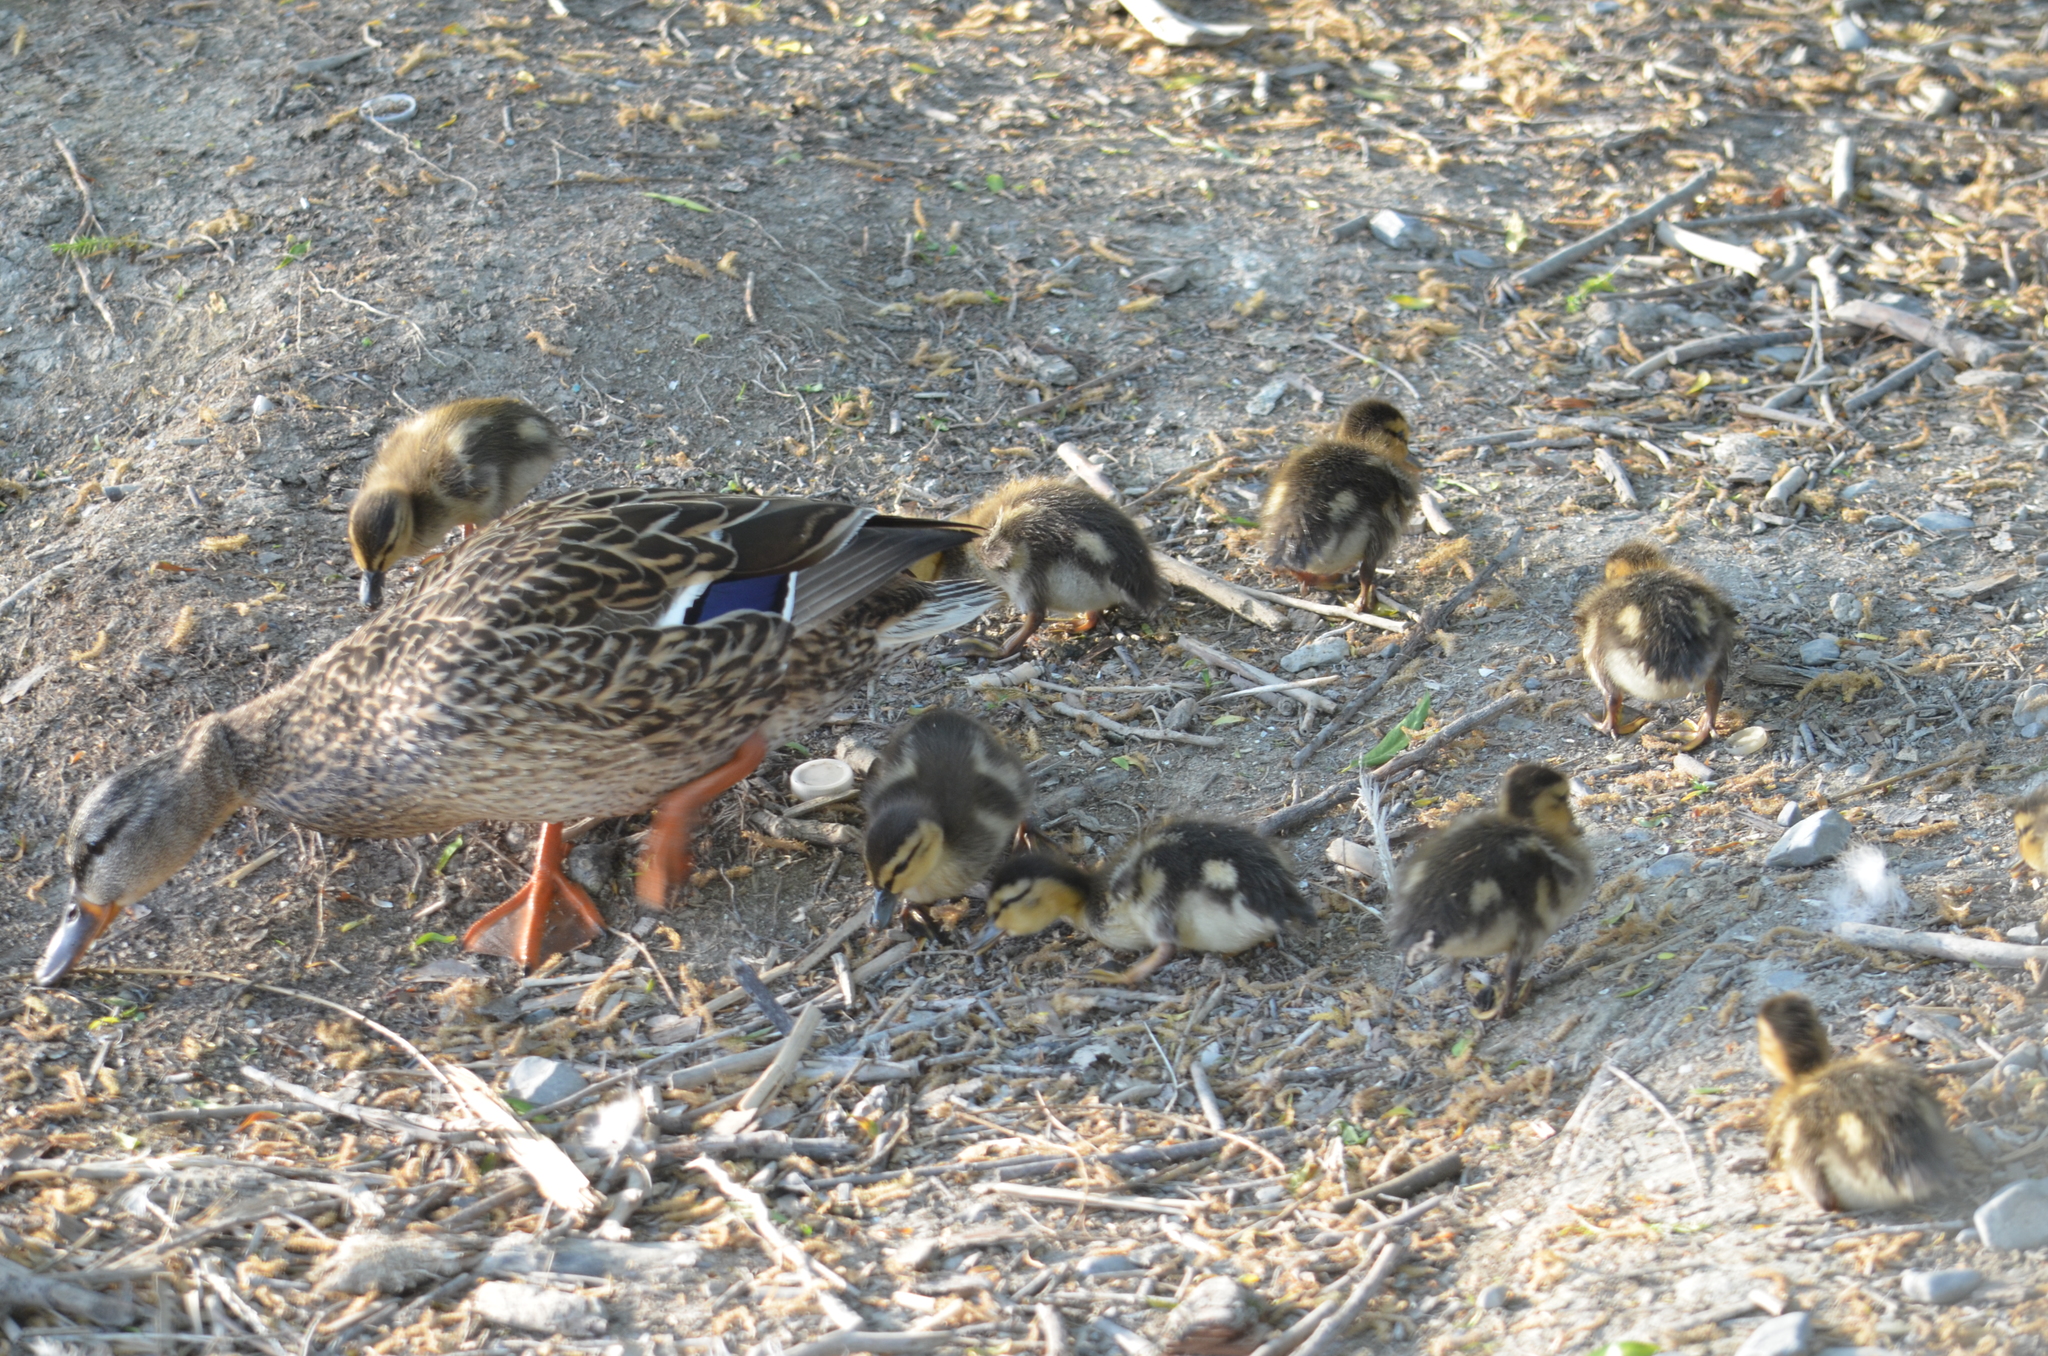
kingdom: Animalia
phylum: Chordata
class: Aves
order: Anseriformes
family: Anatidae
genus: Anas
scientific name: Anas platyrhynchos
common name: Mallard
